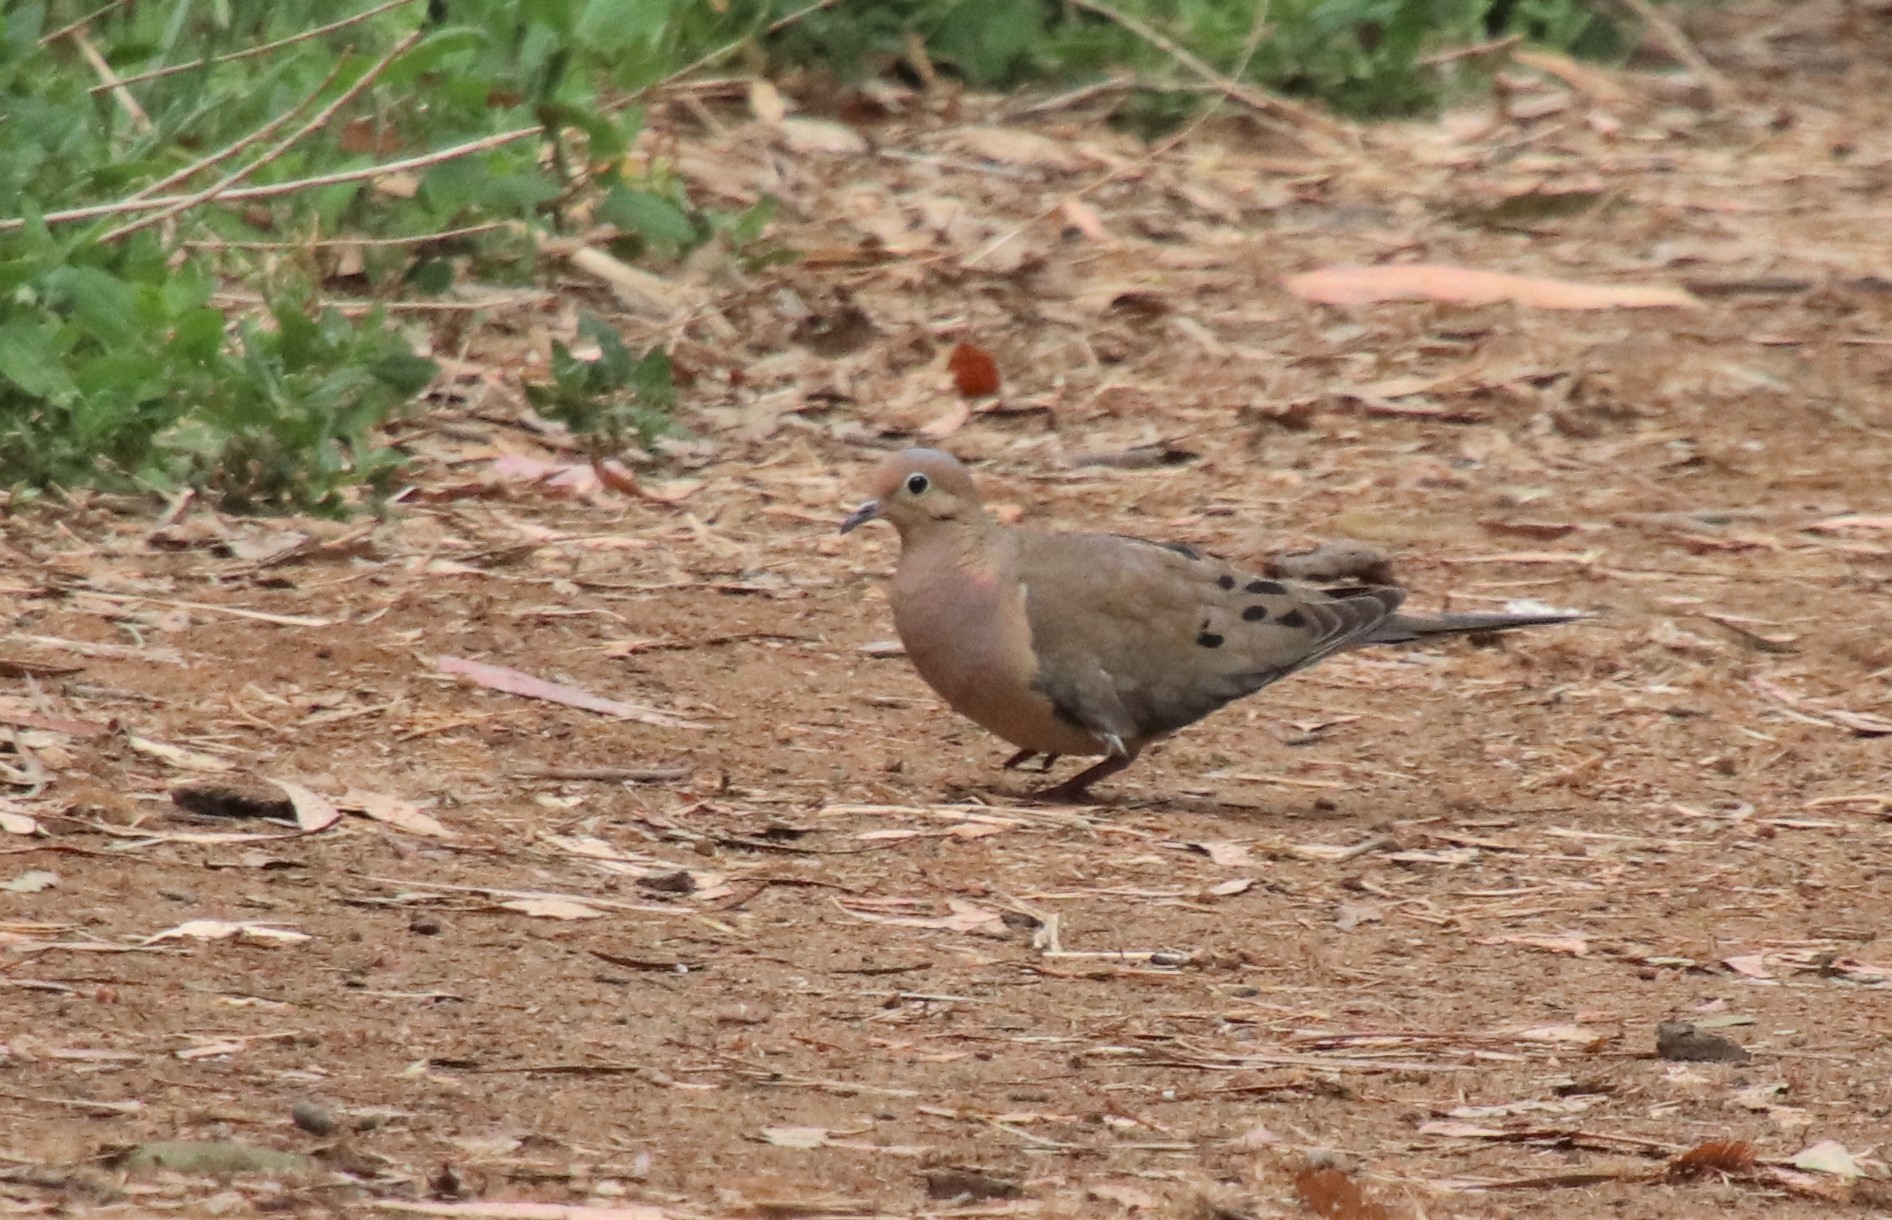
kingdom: Animalia
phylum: Chordata
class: Aves
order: Columbiformes
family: Columbidae
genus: Zenaida
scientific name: Zenaida macroura
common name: Mourning dove
